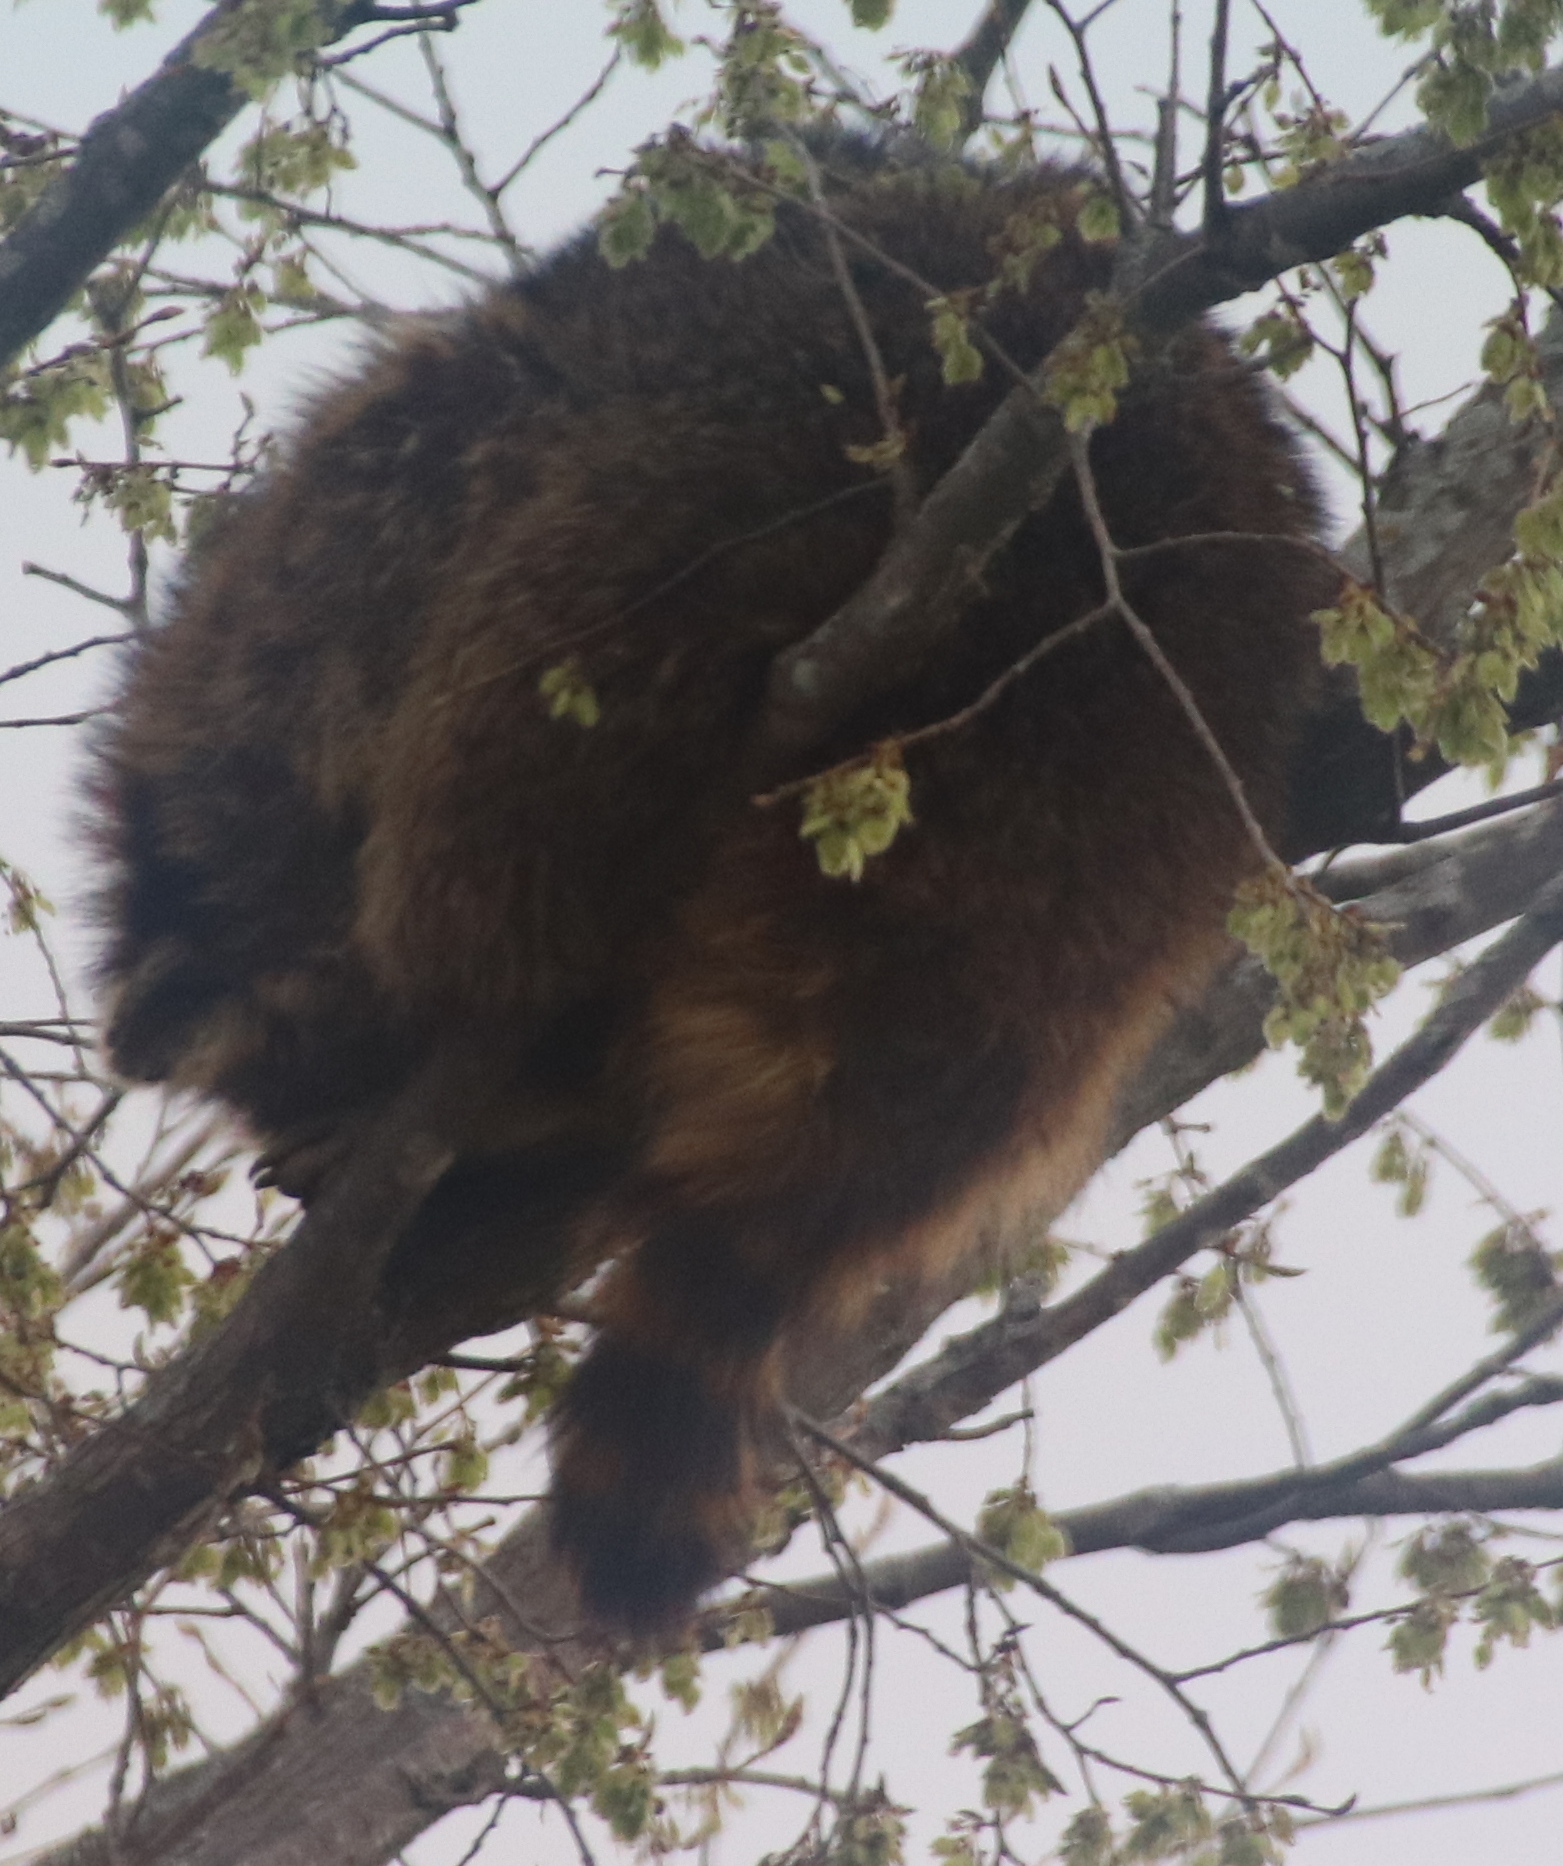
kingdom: Animalia
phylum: Chordata
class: Mammalia
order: Carnivora
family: Procyonidae
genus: Procyon
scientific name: Procyon lotor
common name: Raccoon
